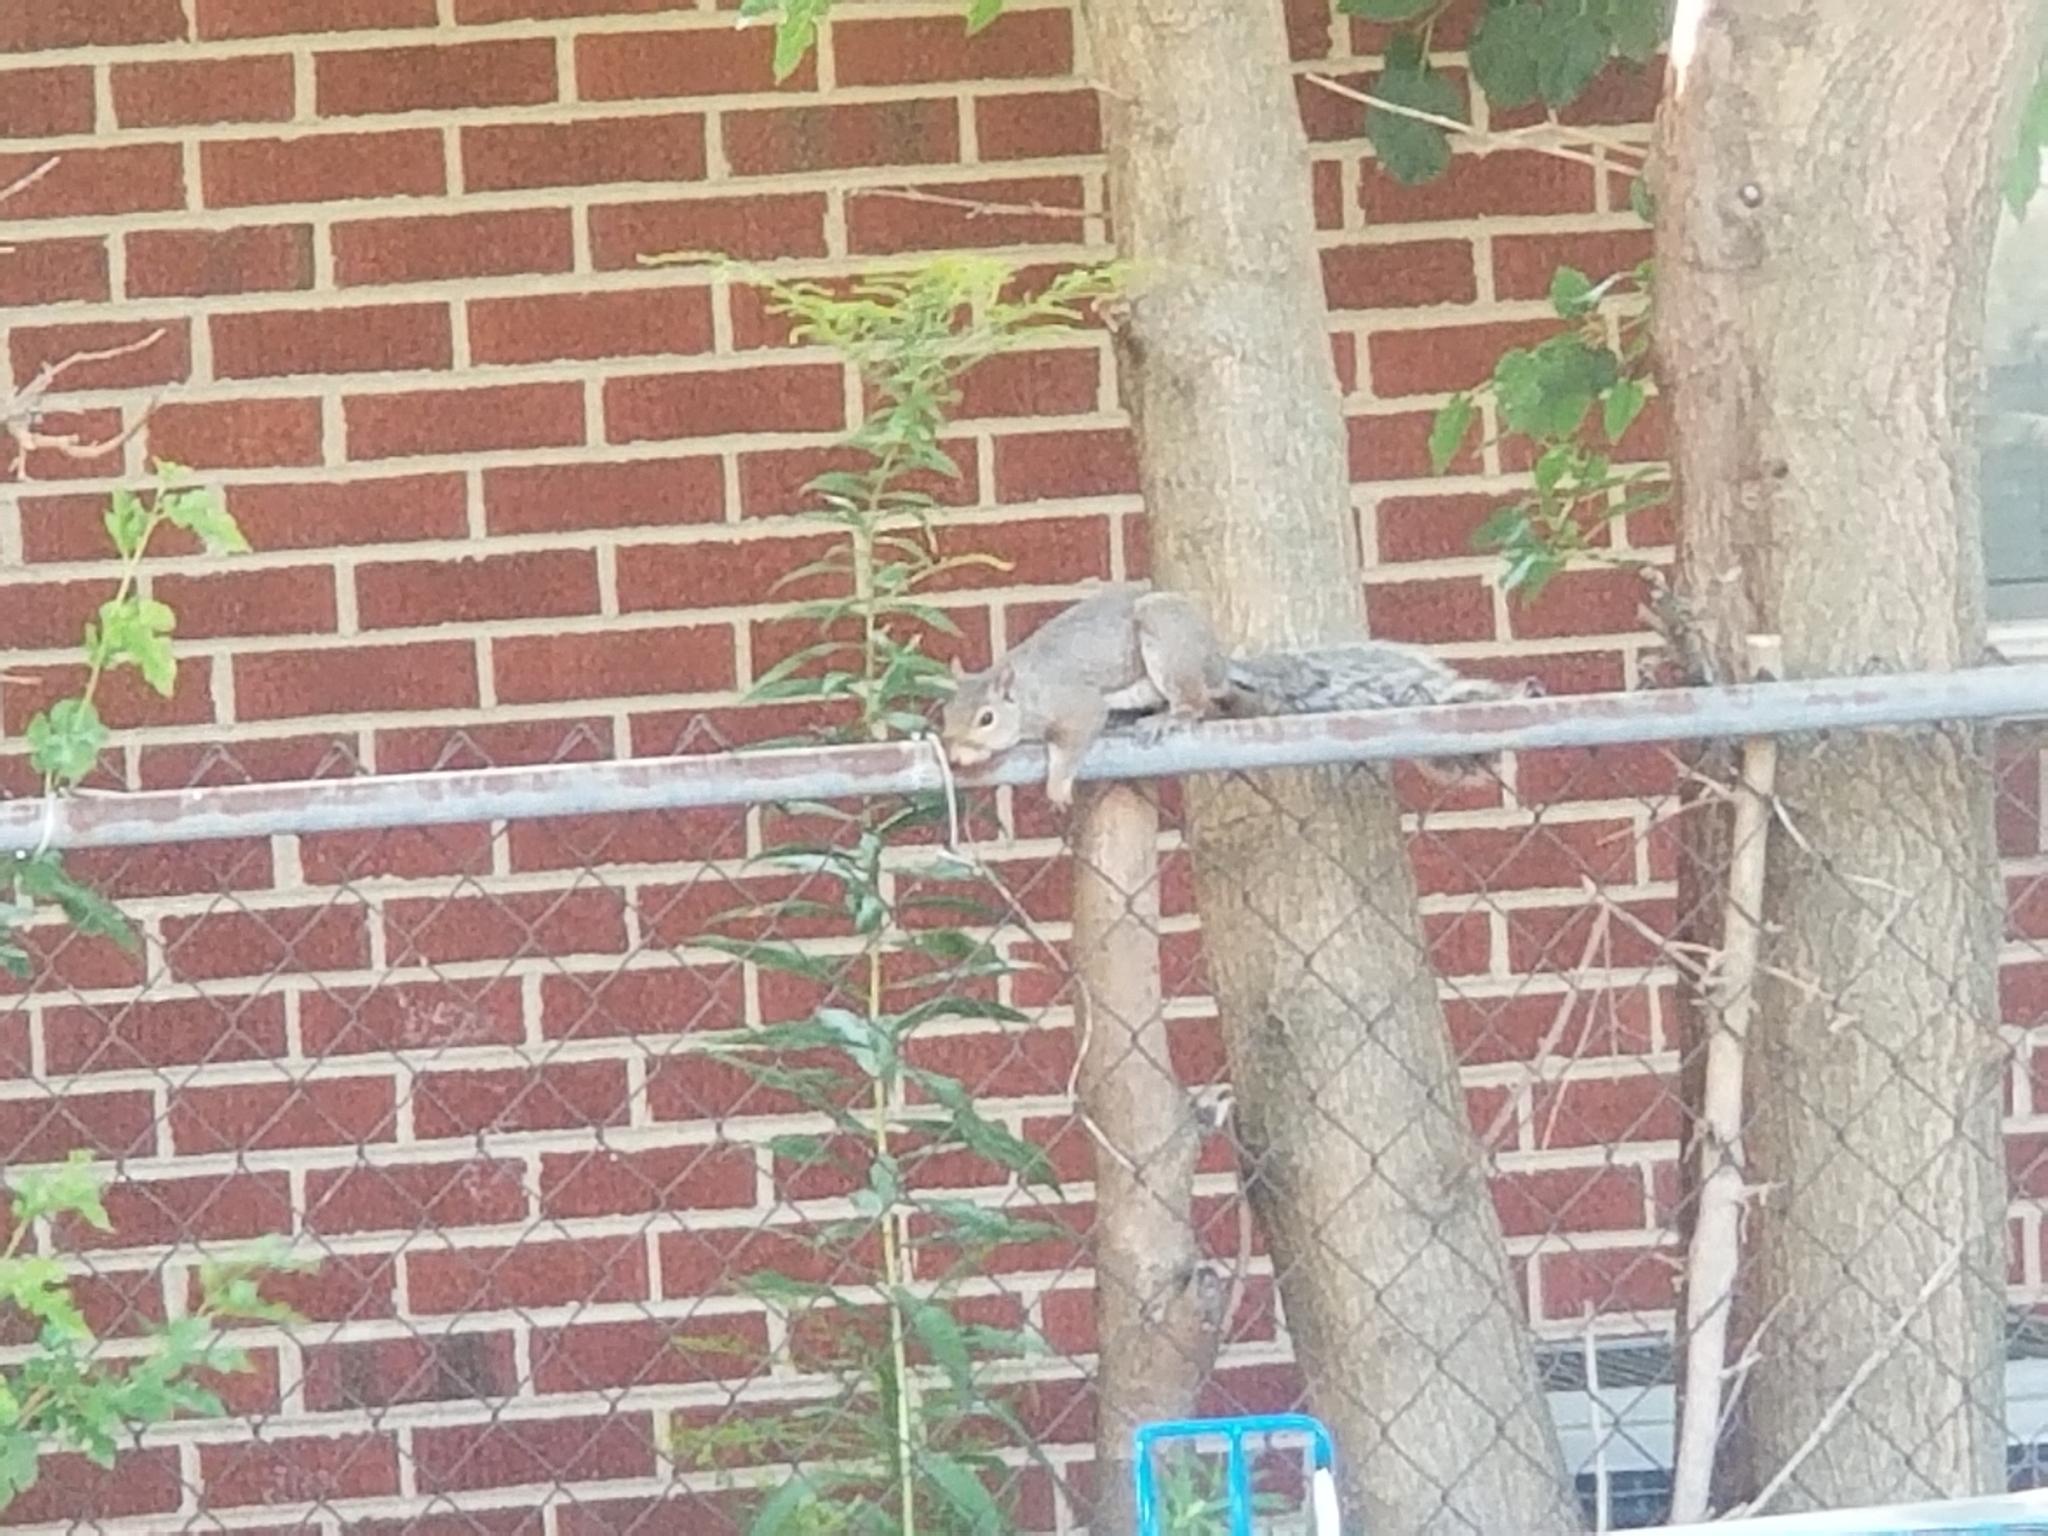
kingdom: Animalia
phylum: Chordata
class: Mammalia
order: Rodentia
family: Sciuridae
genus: Sciurus
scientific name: Sciurus carolinensis
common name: Eastern gray squirrel
